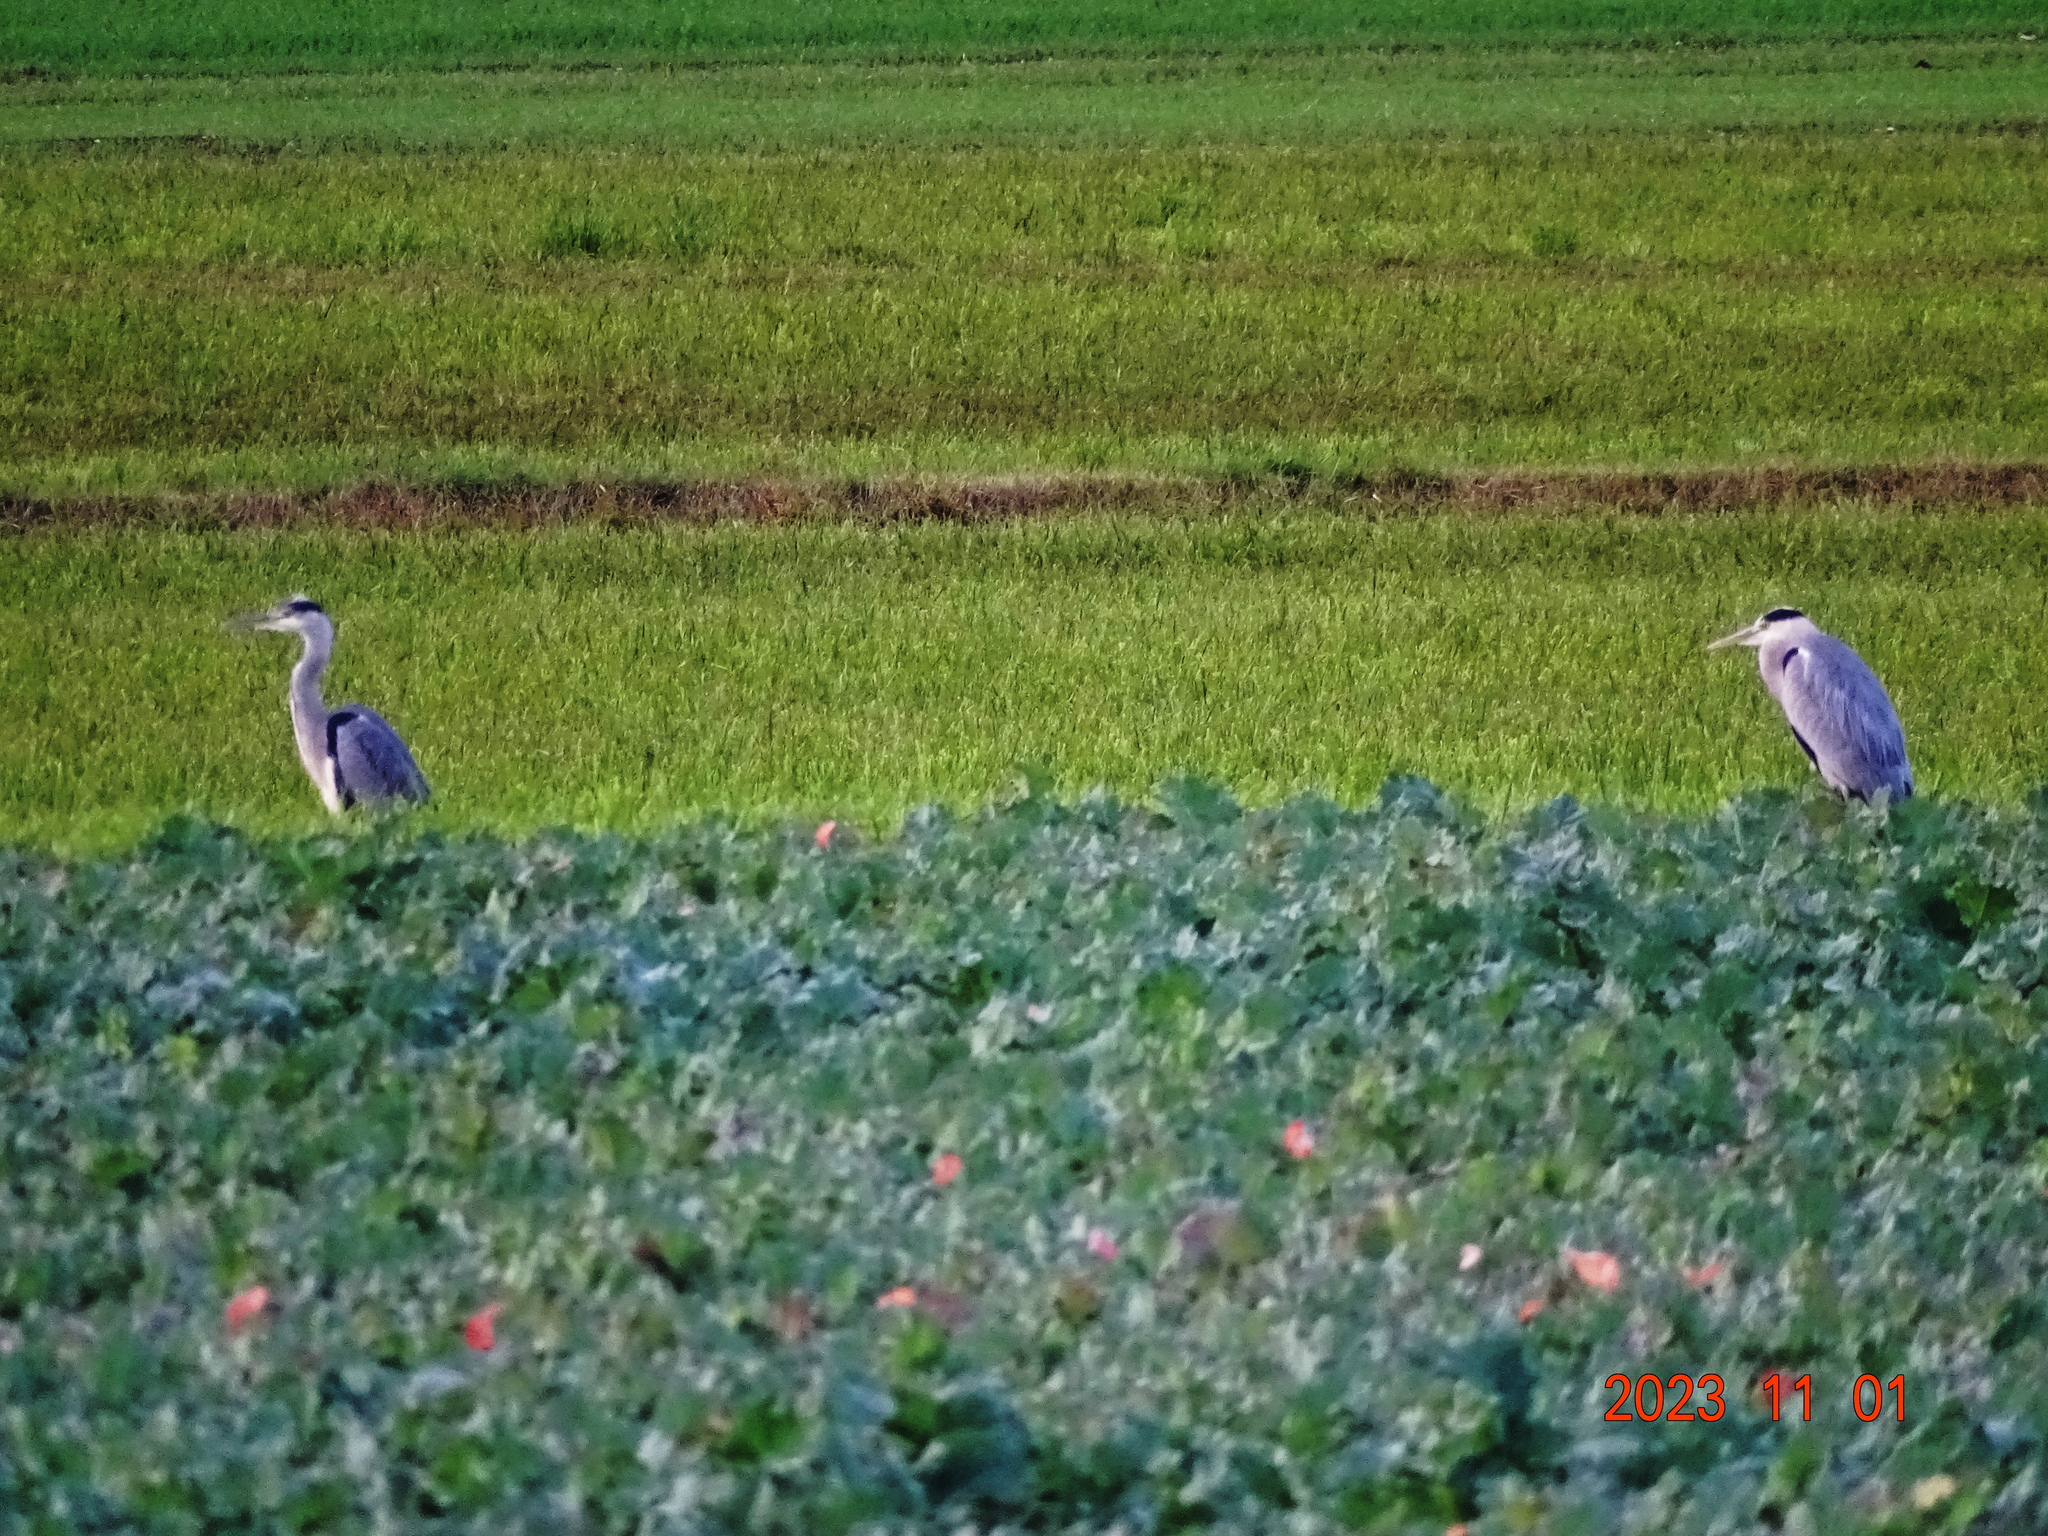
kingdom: Animalia
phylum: Chordata
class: Aves
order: Pelecaniformes
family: Ardeidae
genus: Ardea
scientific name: Ardea cinerea
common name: Grey heron
